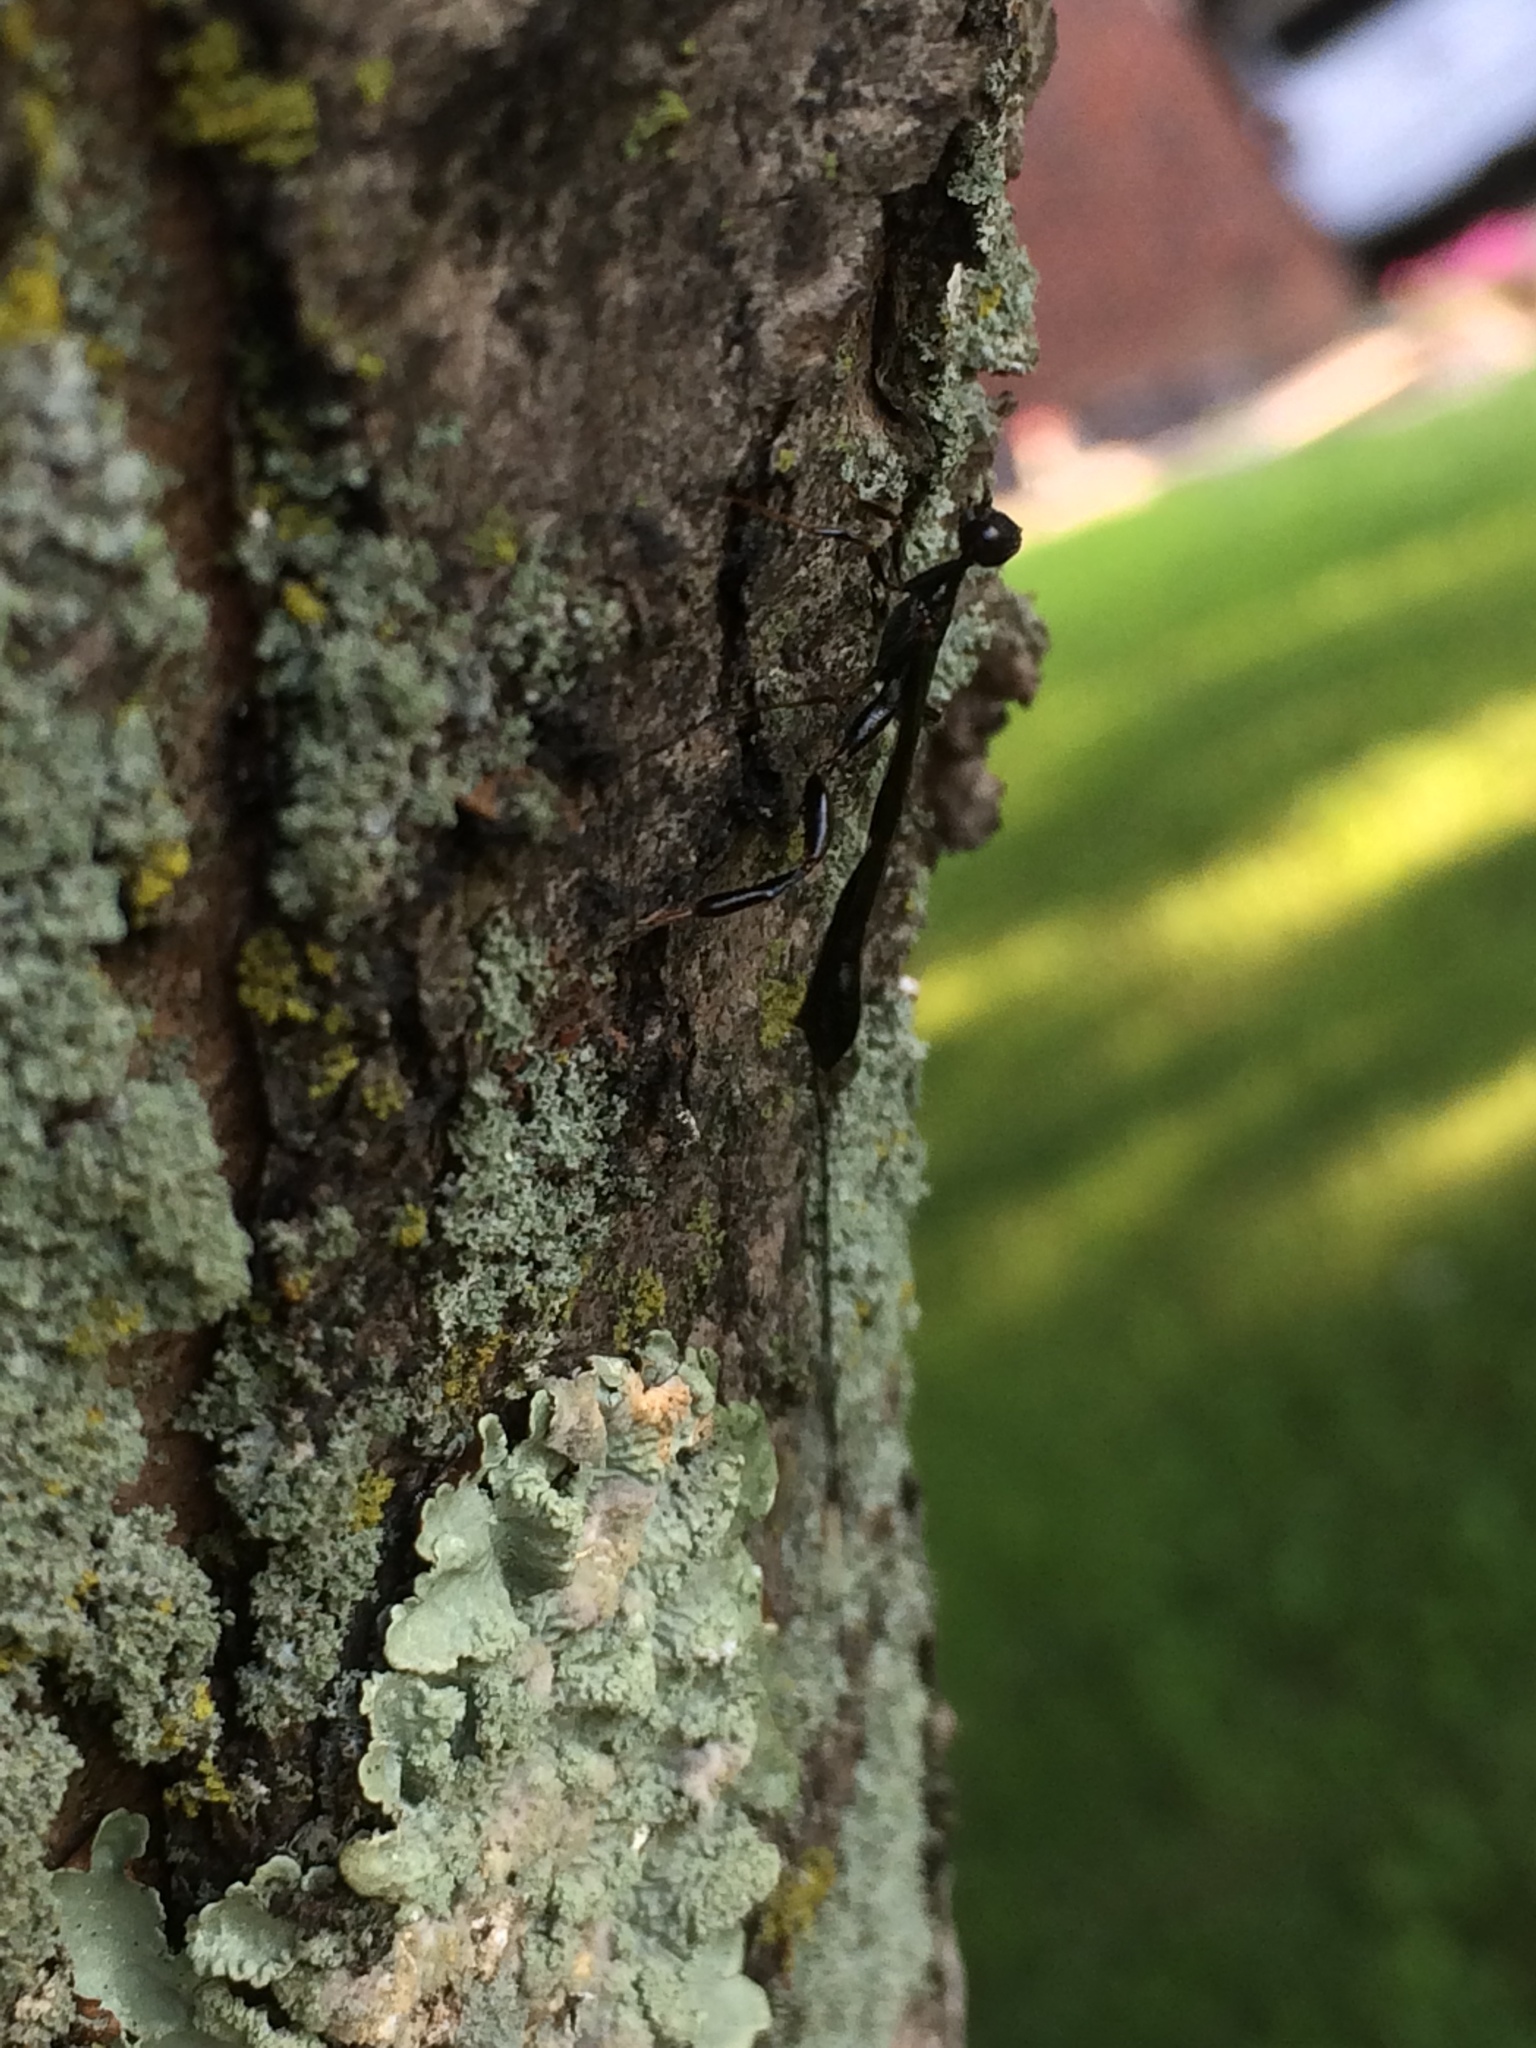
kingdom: Animalia
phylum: Arthropoda
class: Insecta
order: Hymenoptera
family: Stephanidae
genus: Megischus
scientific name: Megischus
